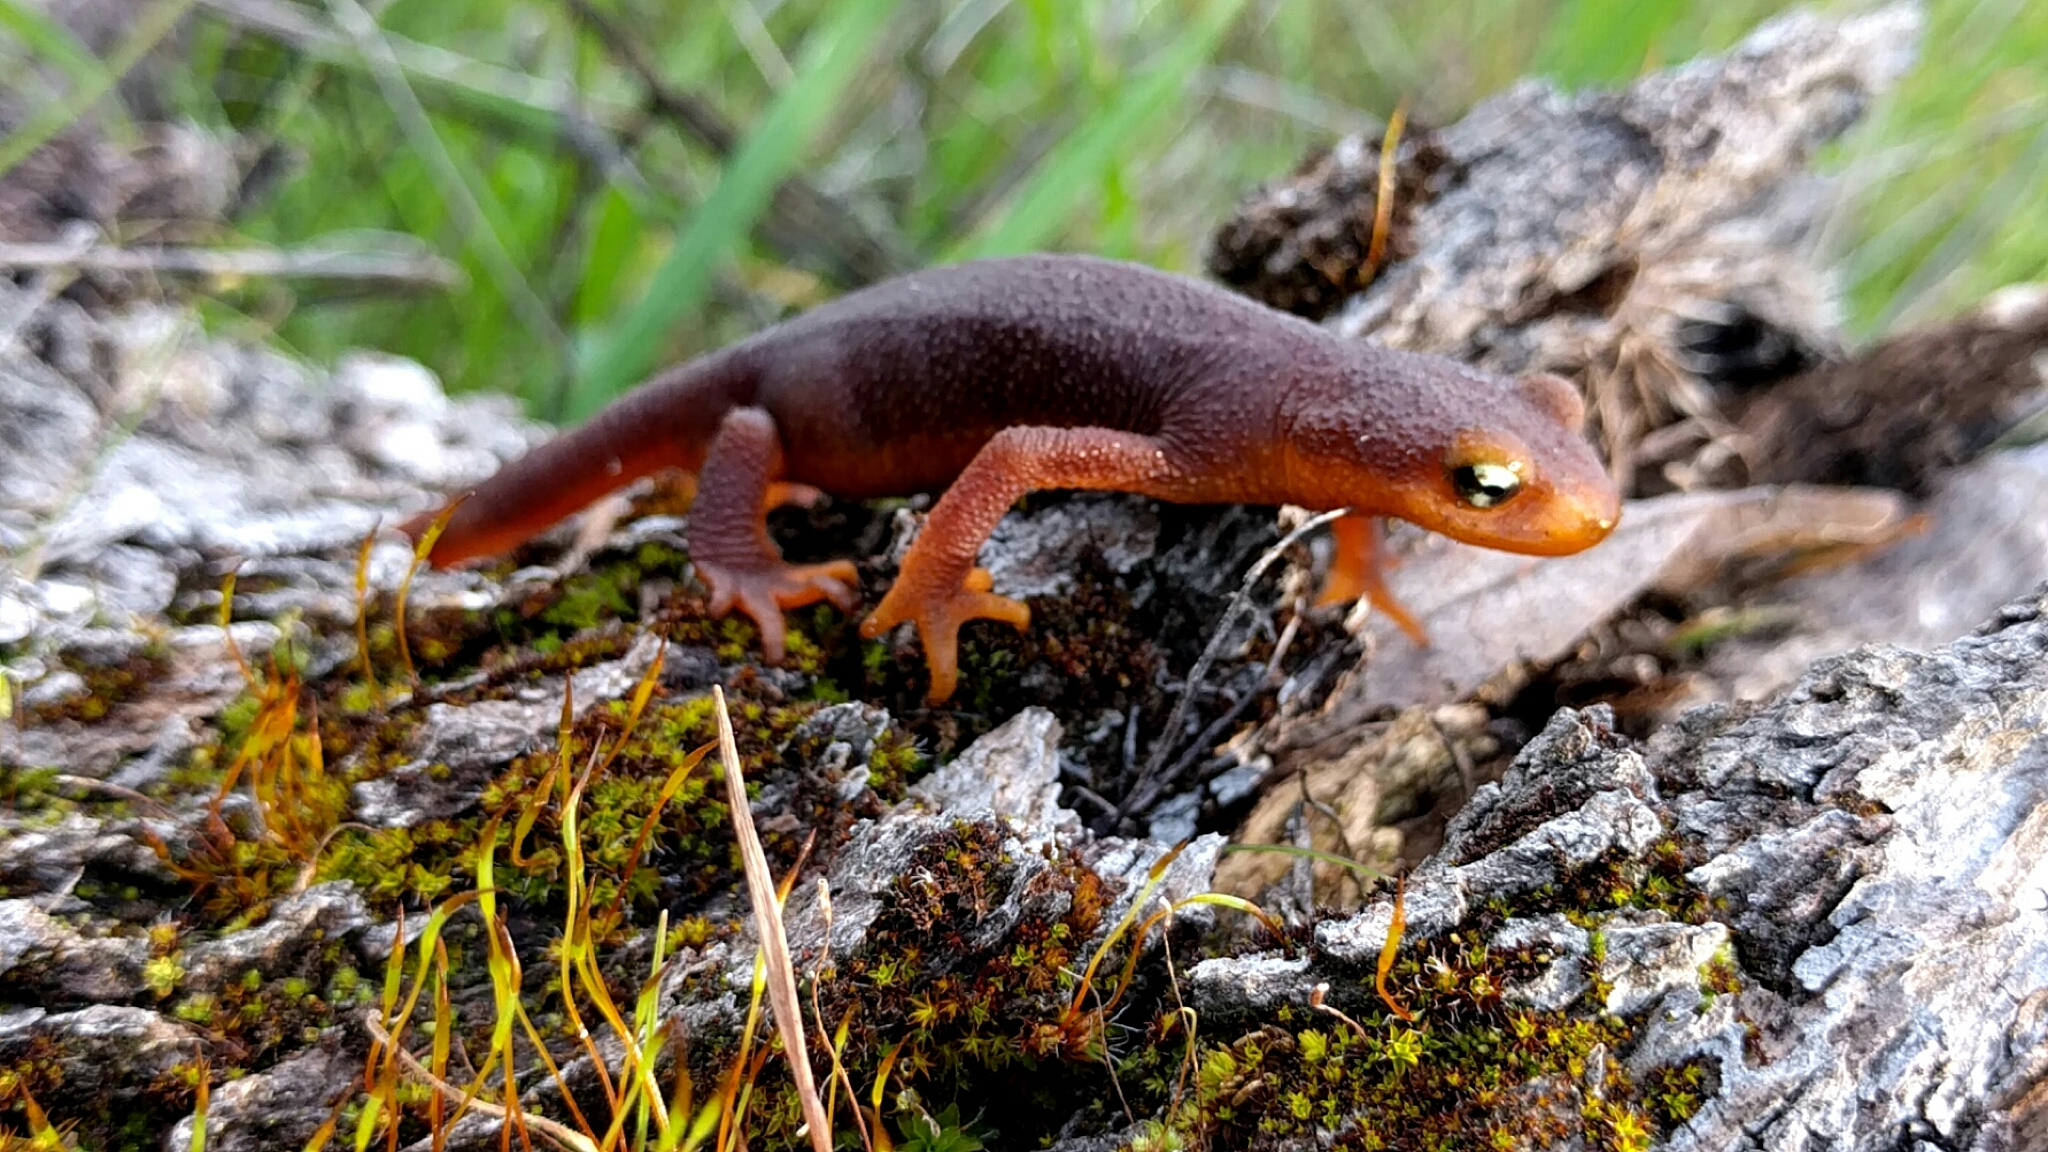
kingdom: Animalia
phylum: Chordata
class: Amphibia
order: Caudata
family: Salamandridae
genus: Taricha
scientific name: Taricha torosa
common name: California newt
